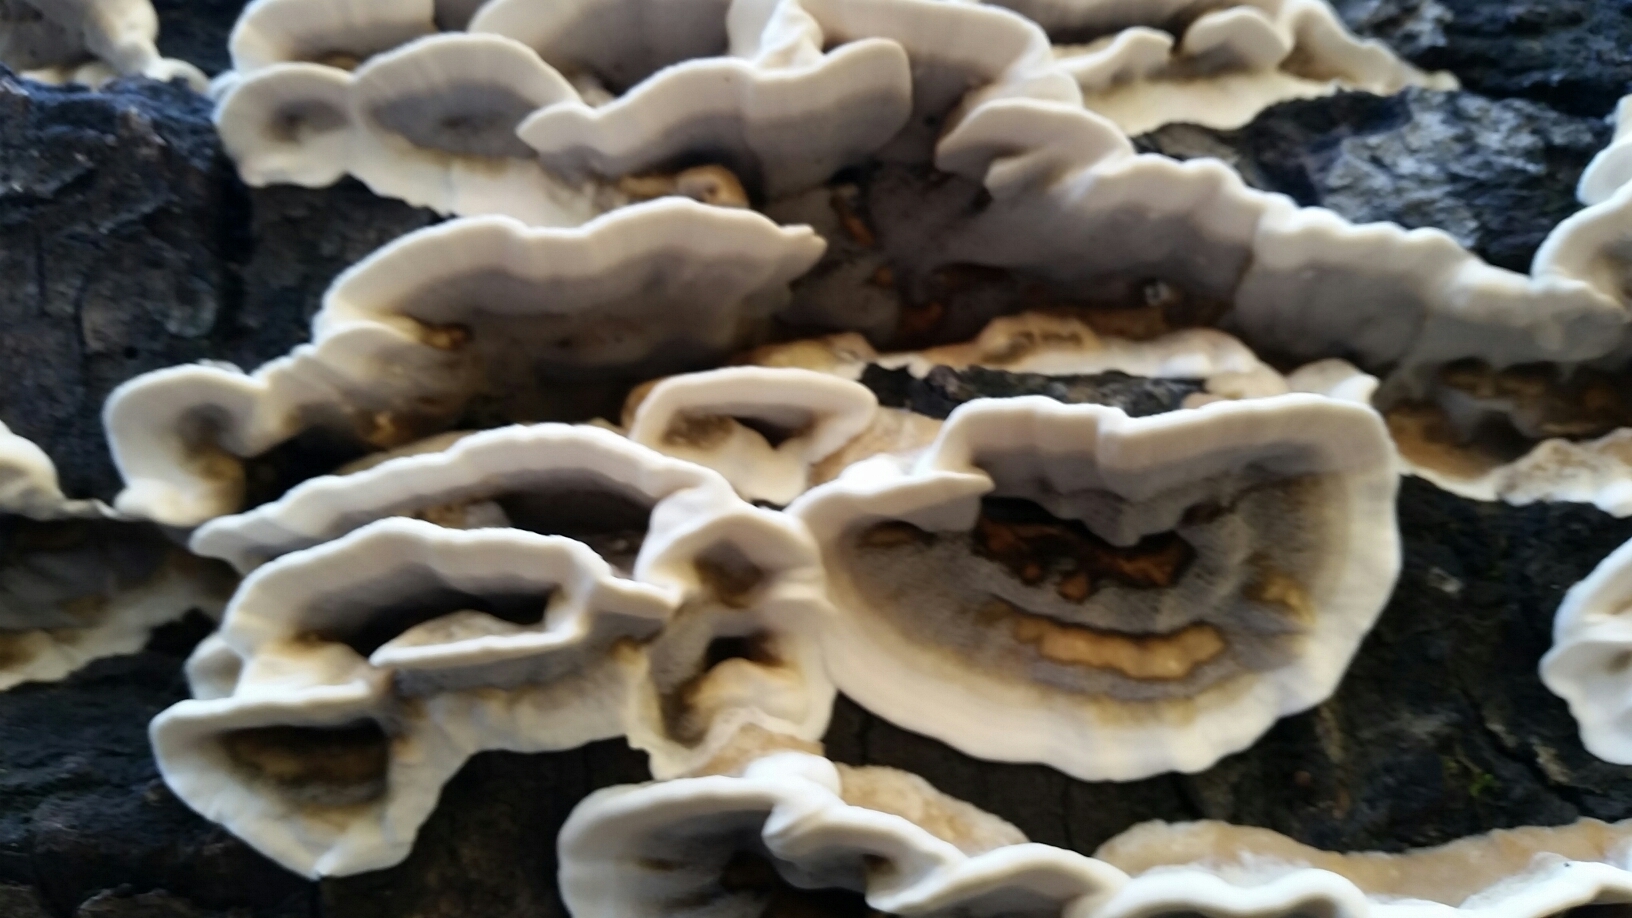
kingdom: Fungi
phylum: Basidiomycota
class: Agaricomycetes
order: Polyporales
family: Phanerochaetaceae
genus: Bjerkandera
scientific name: Bjerkandera adusta
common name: Smoky bracket
